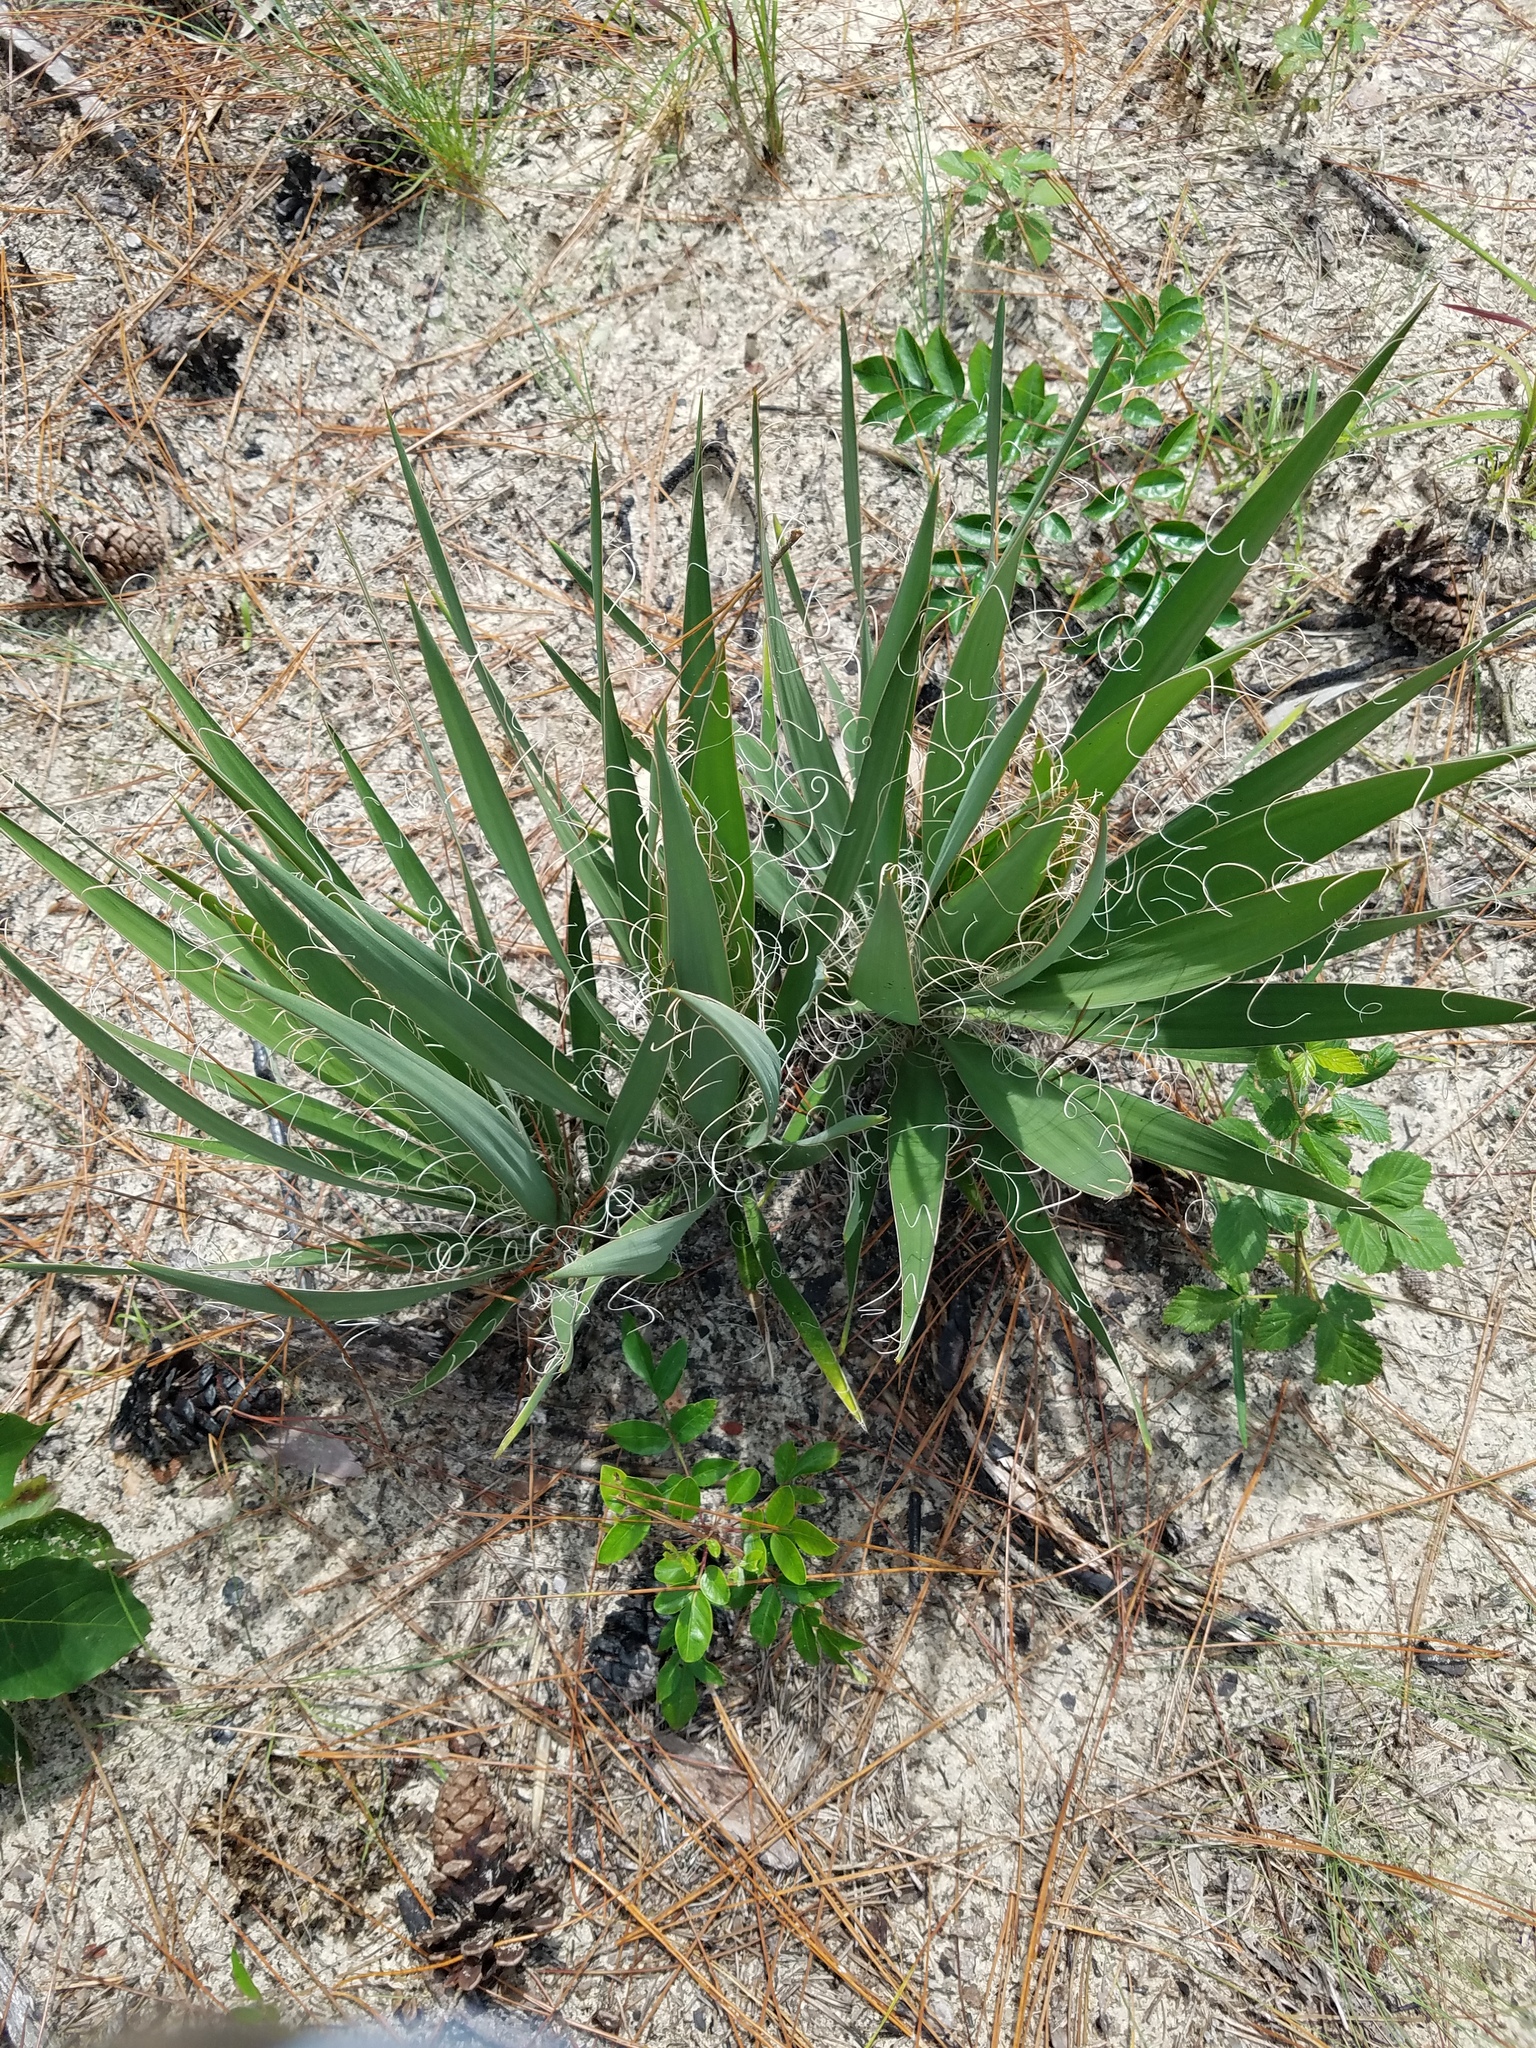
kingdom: Plantae
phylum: Tracheophyta
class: Liliopsida
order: Asparagales
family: Asparagaceae
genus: Yucca
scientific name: Yucca filamentosa
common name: Adam's-needle
